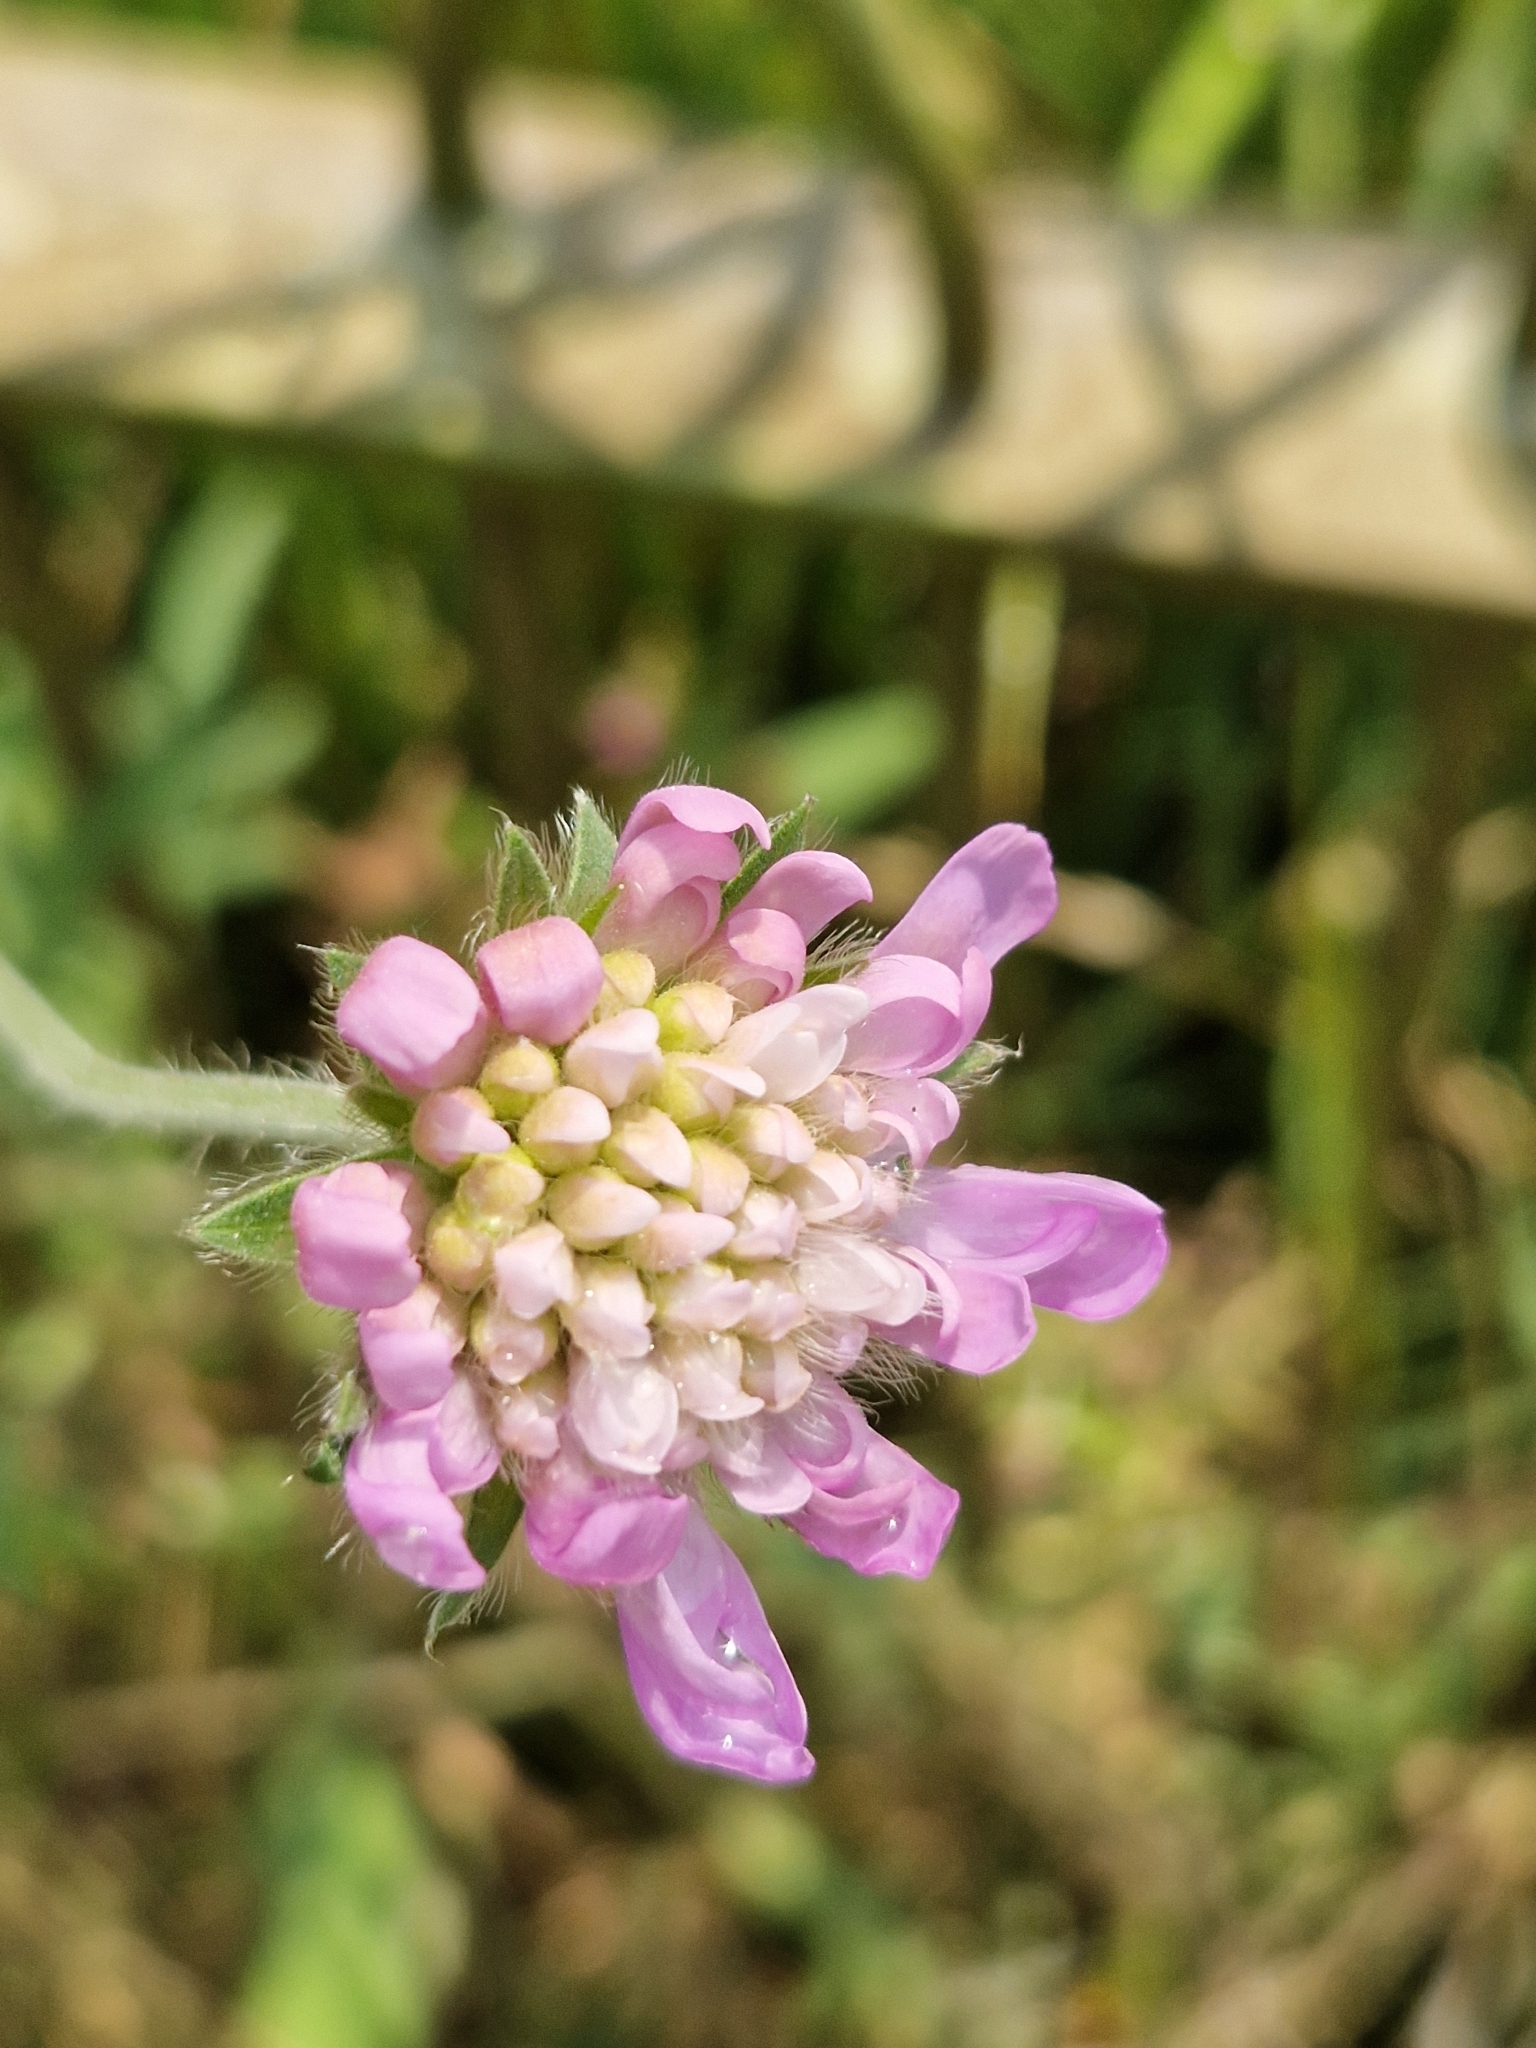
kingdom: Plantae
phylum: Tracheophyta
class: Magnoliopsida
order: Dipsacales
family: Caprifoliaceae
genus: Knautia
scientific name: Knautia arvensis
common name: Field scabiosa
